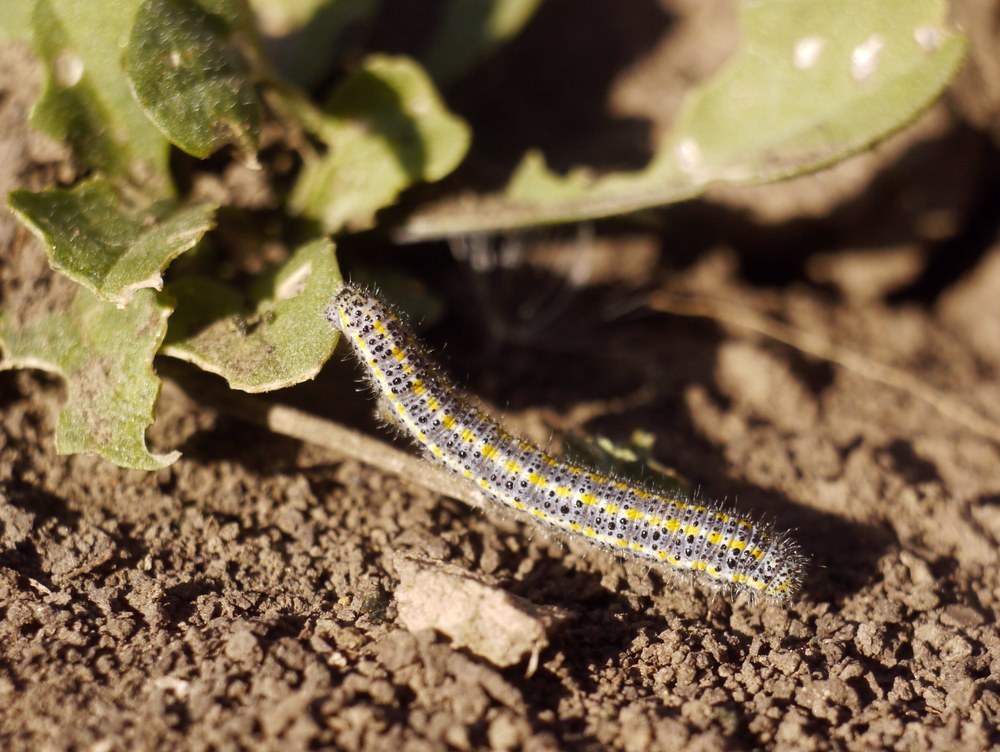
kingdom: Animalia
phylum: Arthropoda
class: Insecta
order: Lepidoptera
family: Pieridae
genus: Pontia
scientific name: Pontia edusa
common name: Eastern bath white
